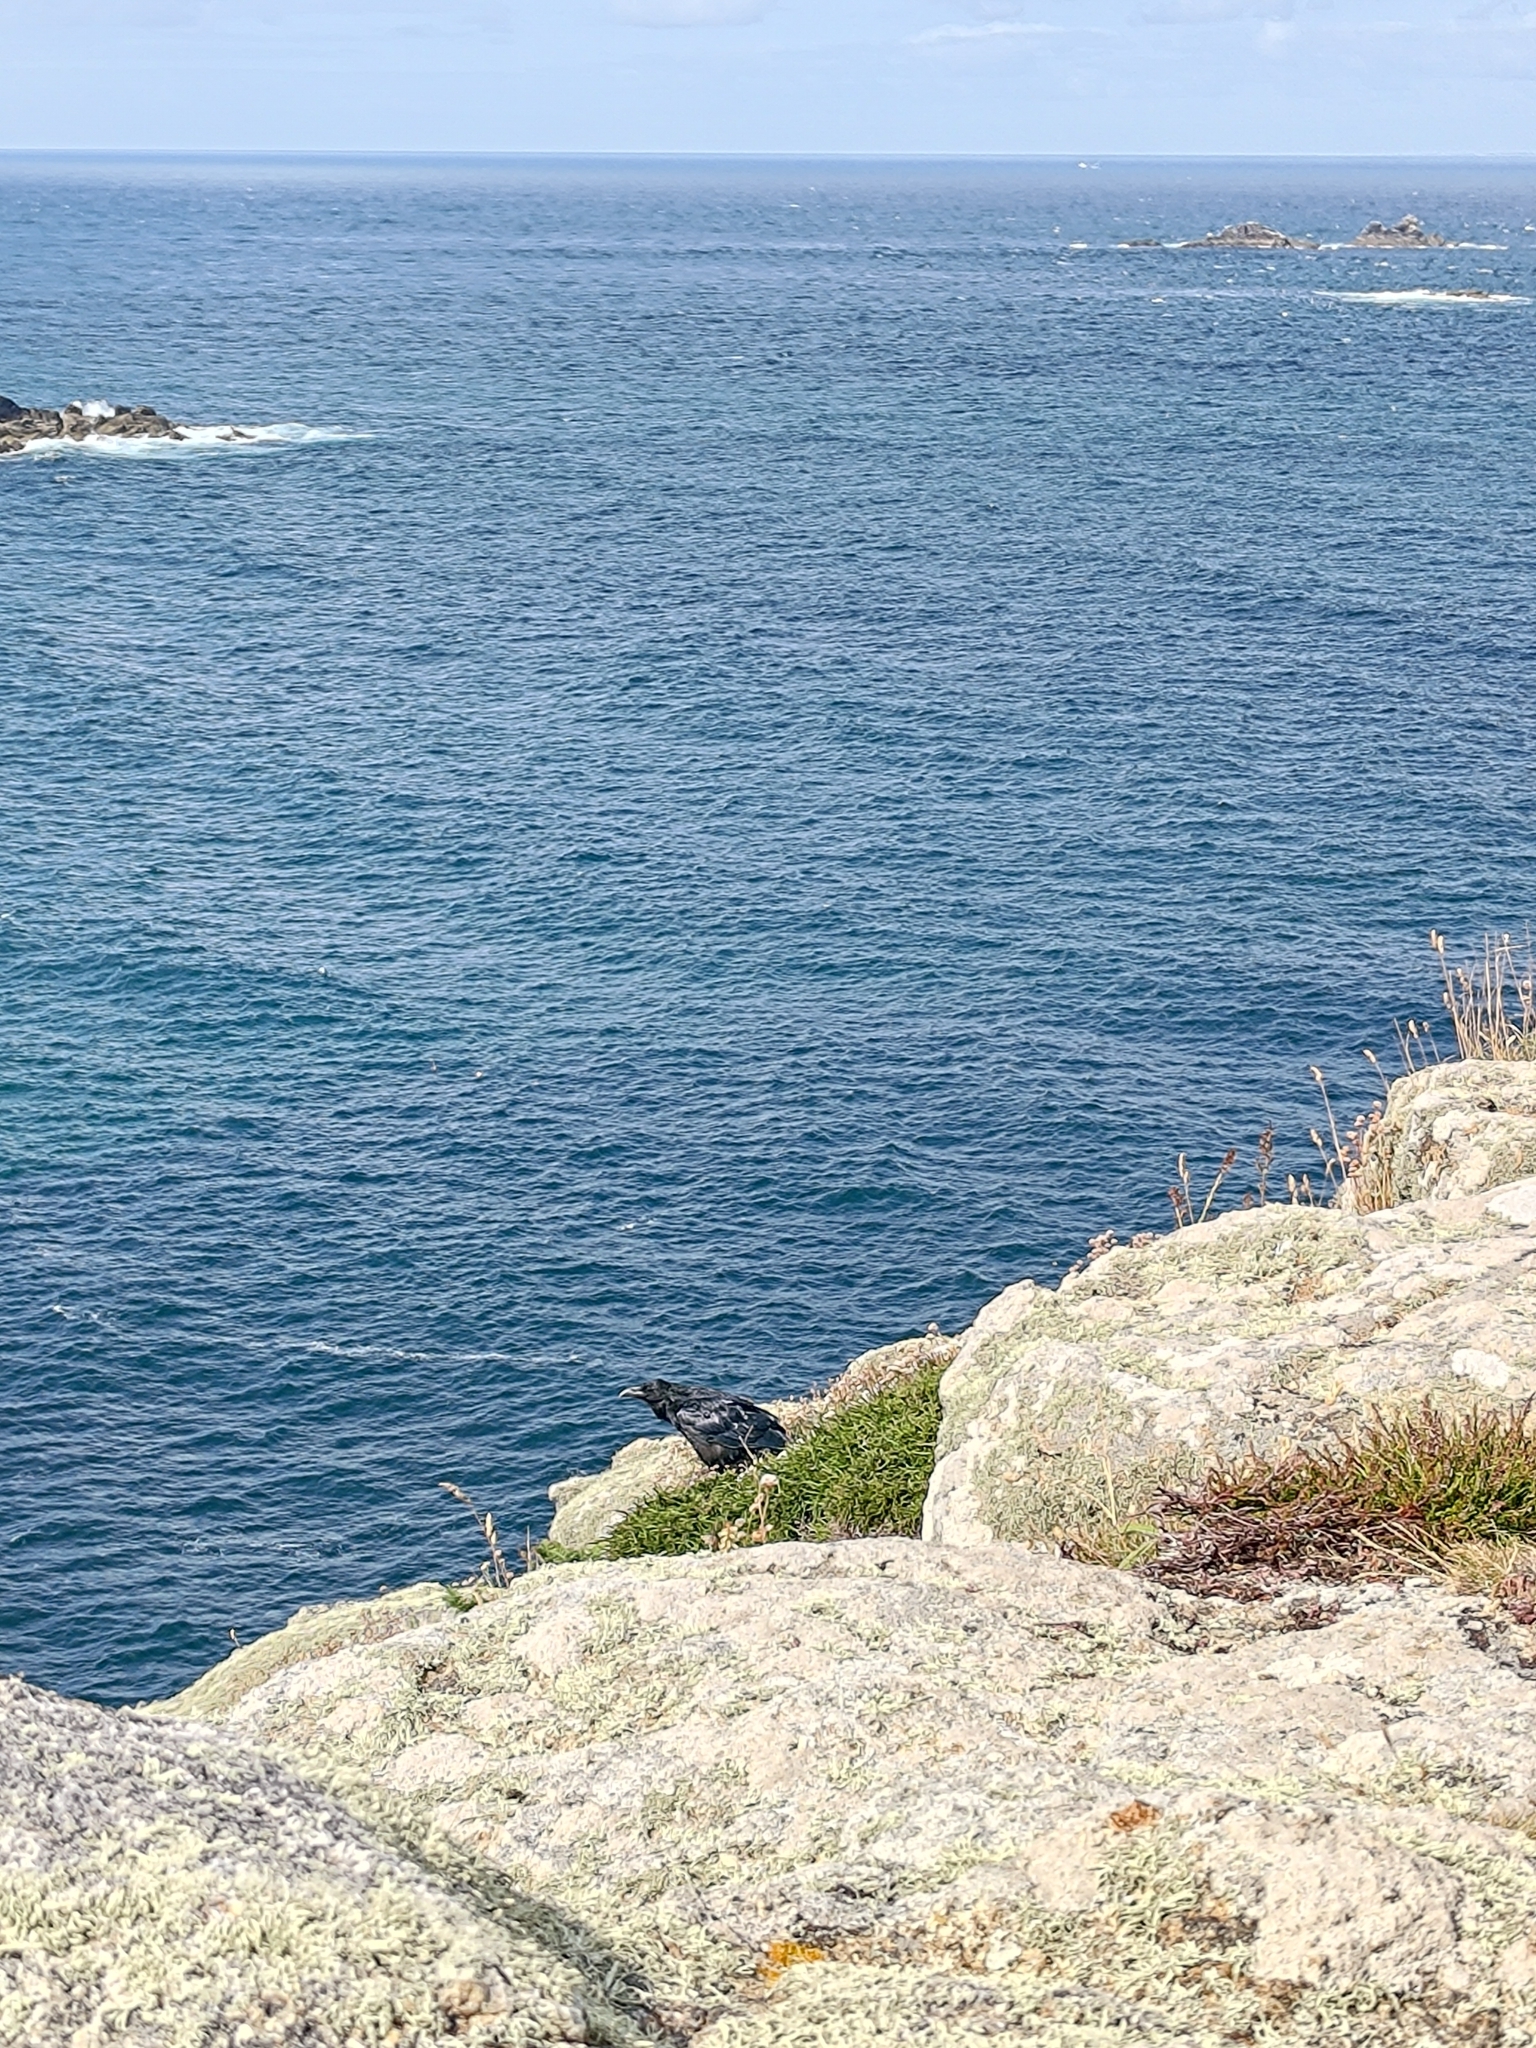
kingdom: Animalia
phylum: Chordata
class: Aves
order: Passeriformes
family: Corvidae
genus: Corvus
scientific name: Corvus corax
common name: Common raven
